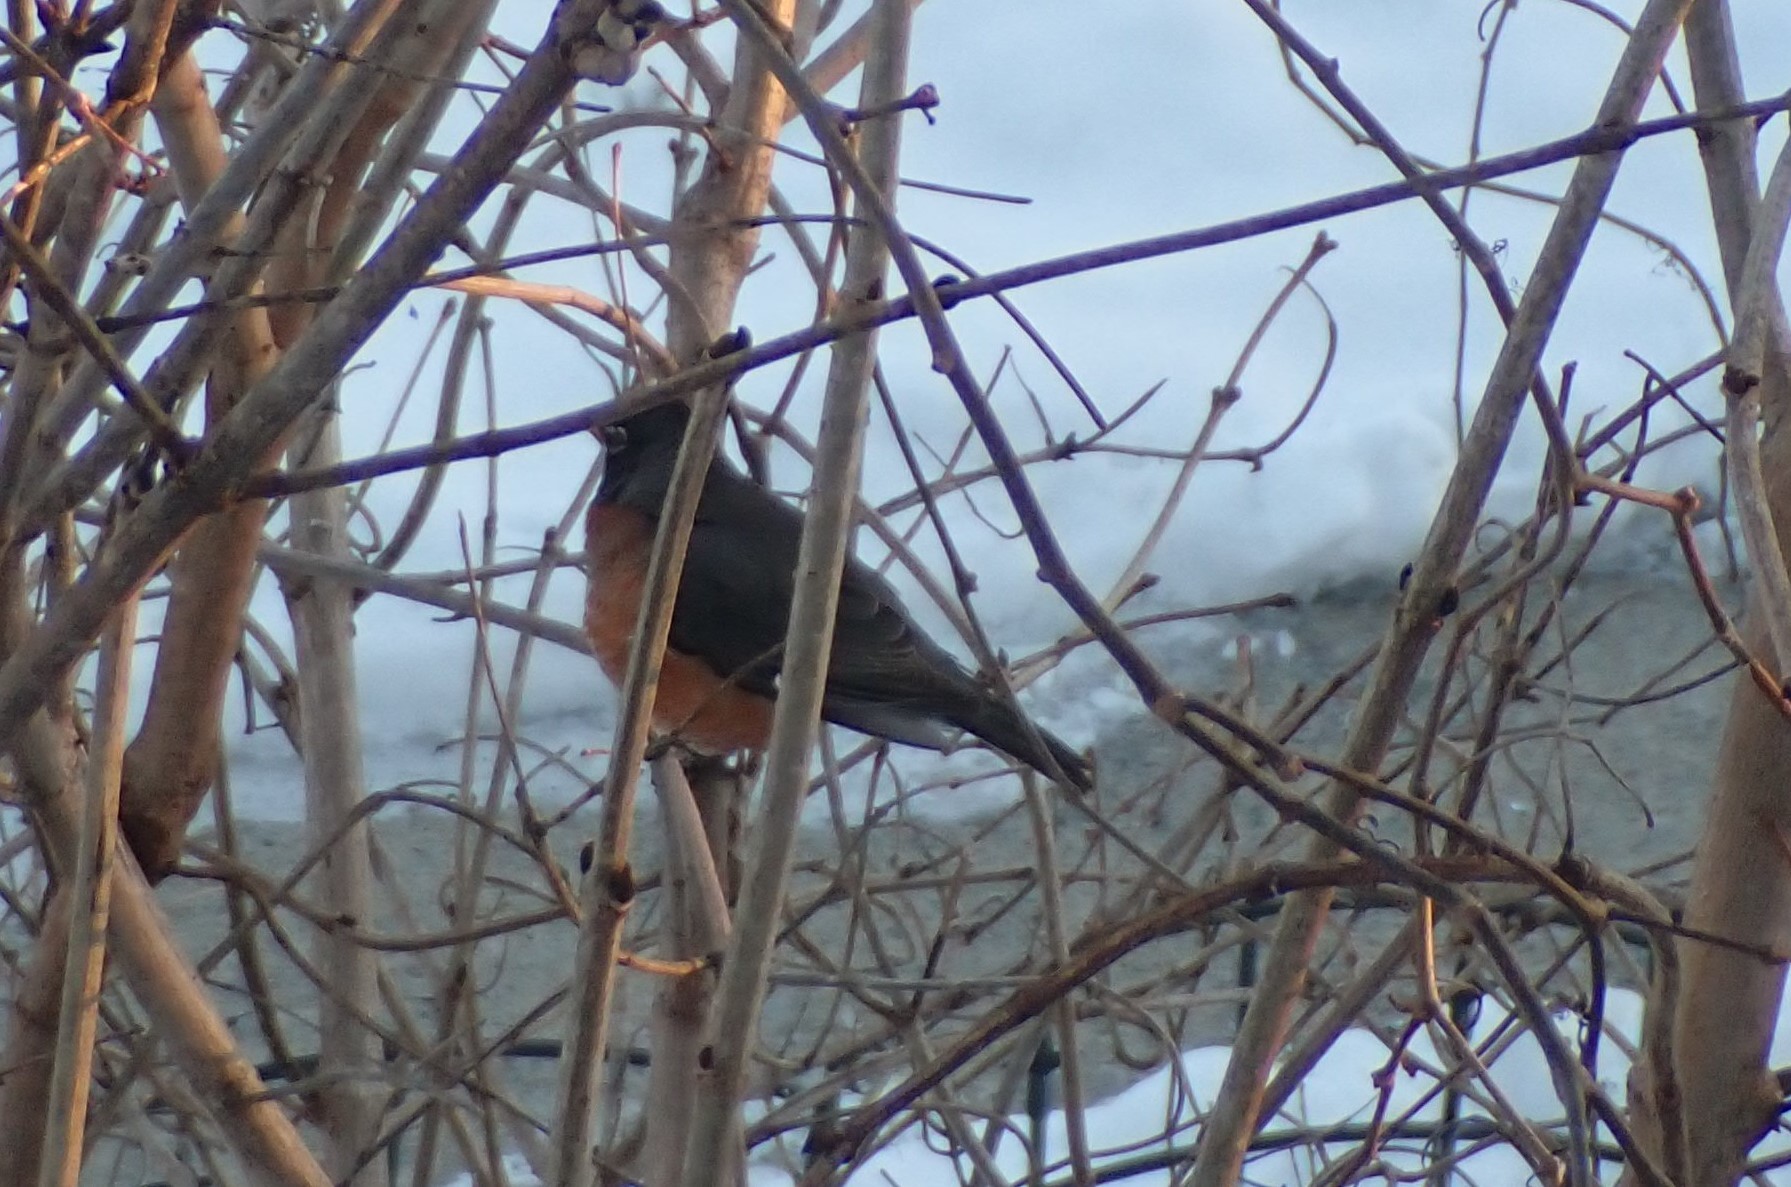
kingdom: Animalia
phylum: Chordata
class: Aves
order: Passeriformes
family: Turdidae
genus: Turdus
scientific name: Turdus migratorius
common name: American robin
